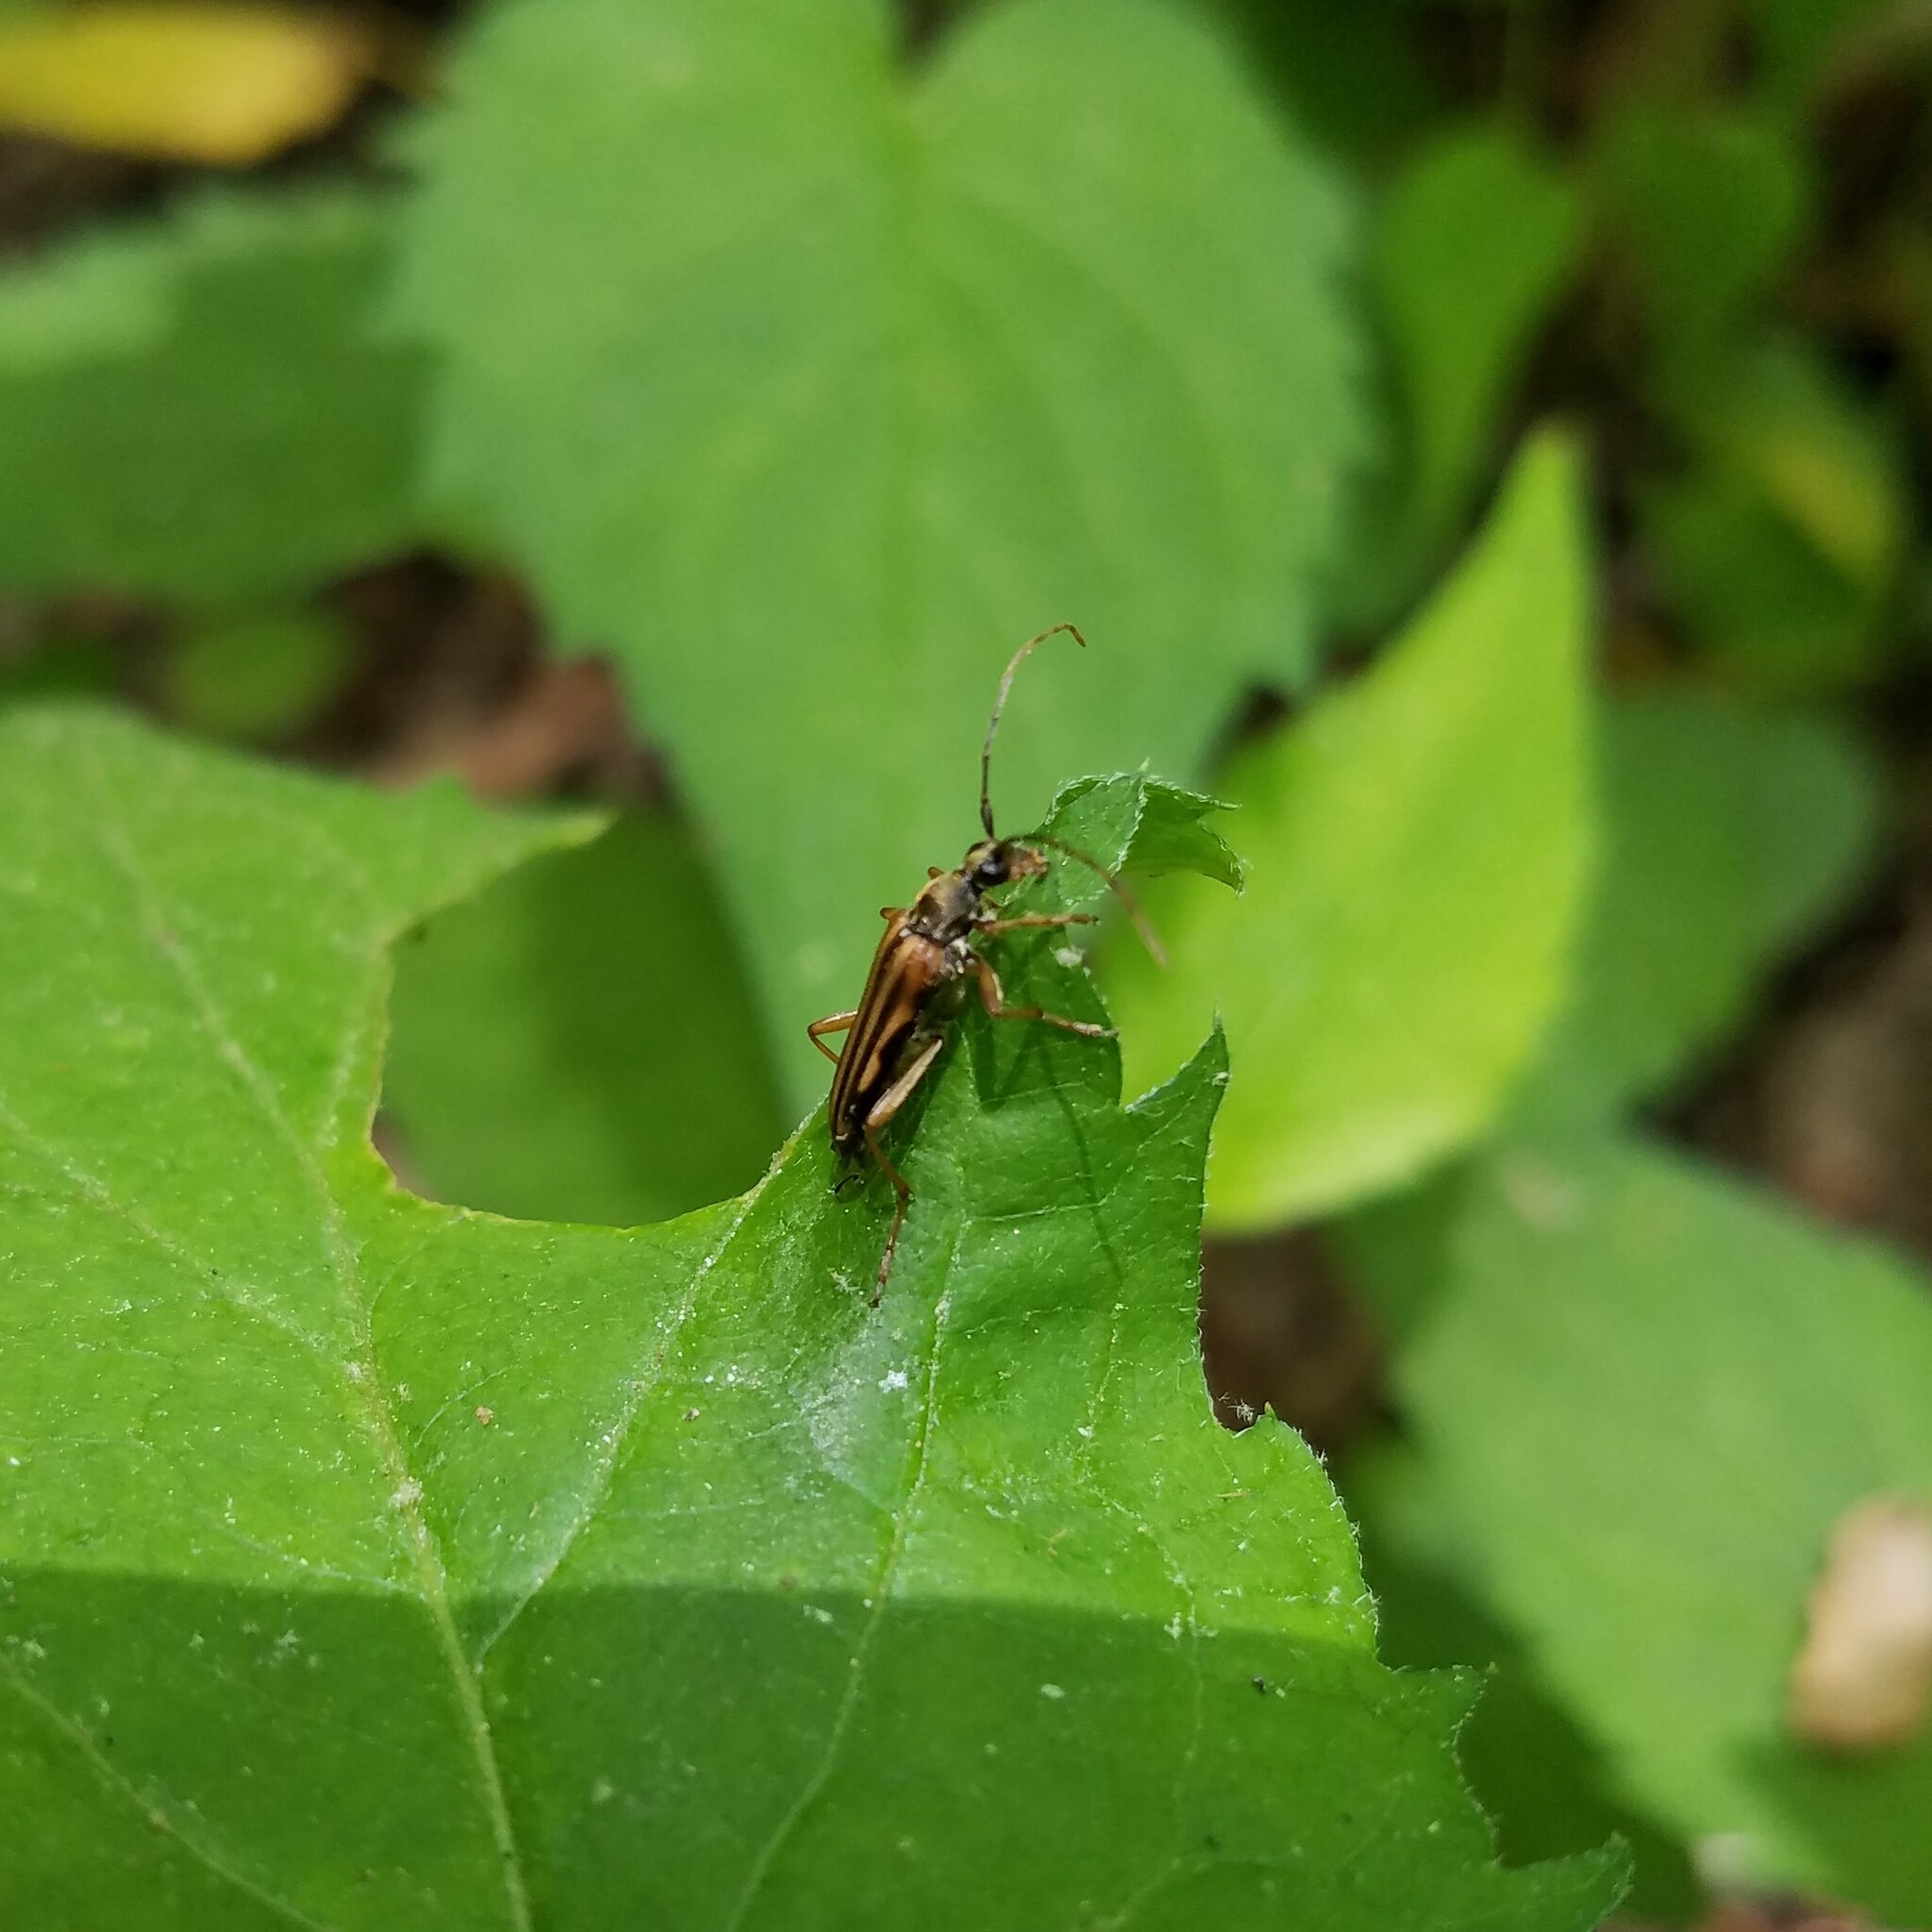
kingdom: Animalia
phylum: Arthropoda
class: Insecta
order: Coleoptera
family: Cerambycidae
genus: Analeptura
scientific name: Analeptura lineola
